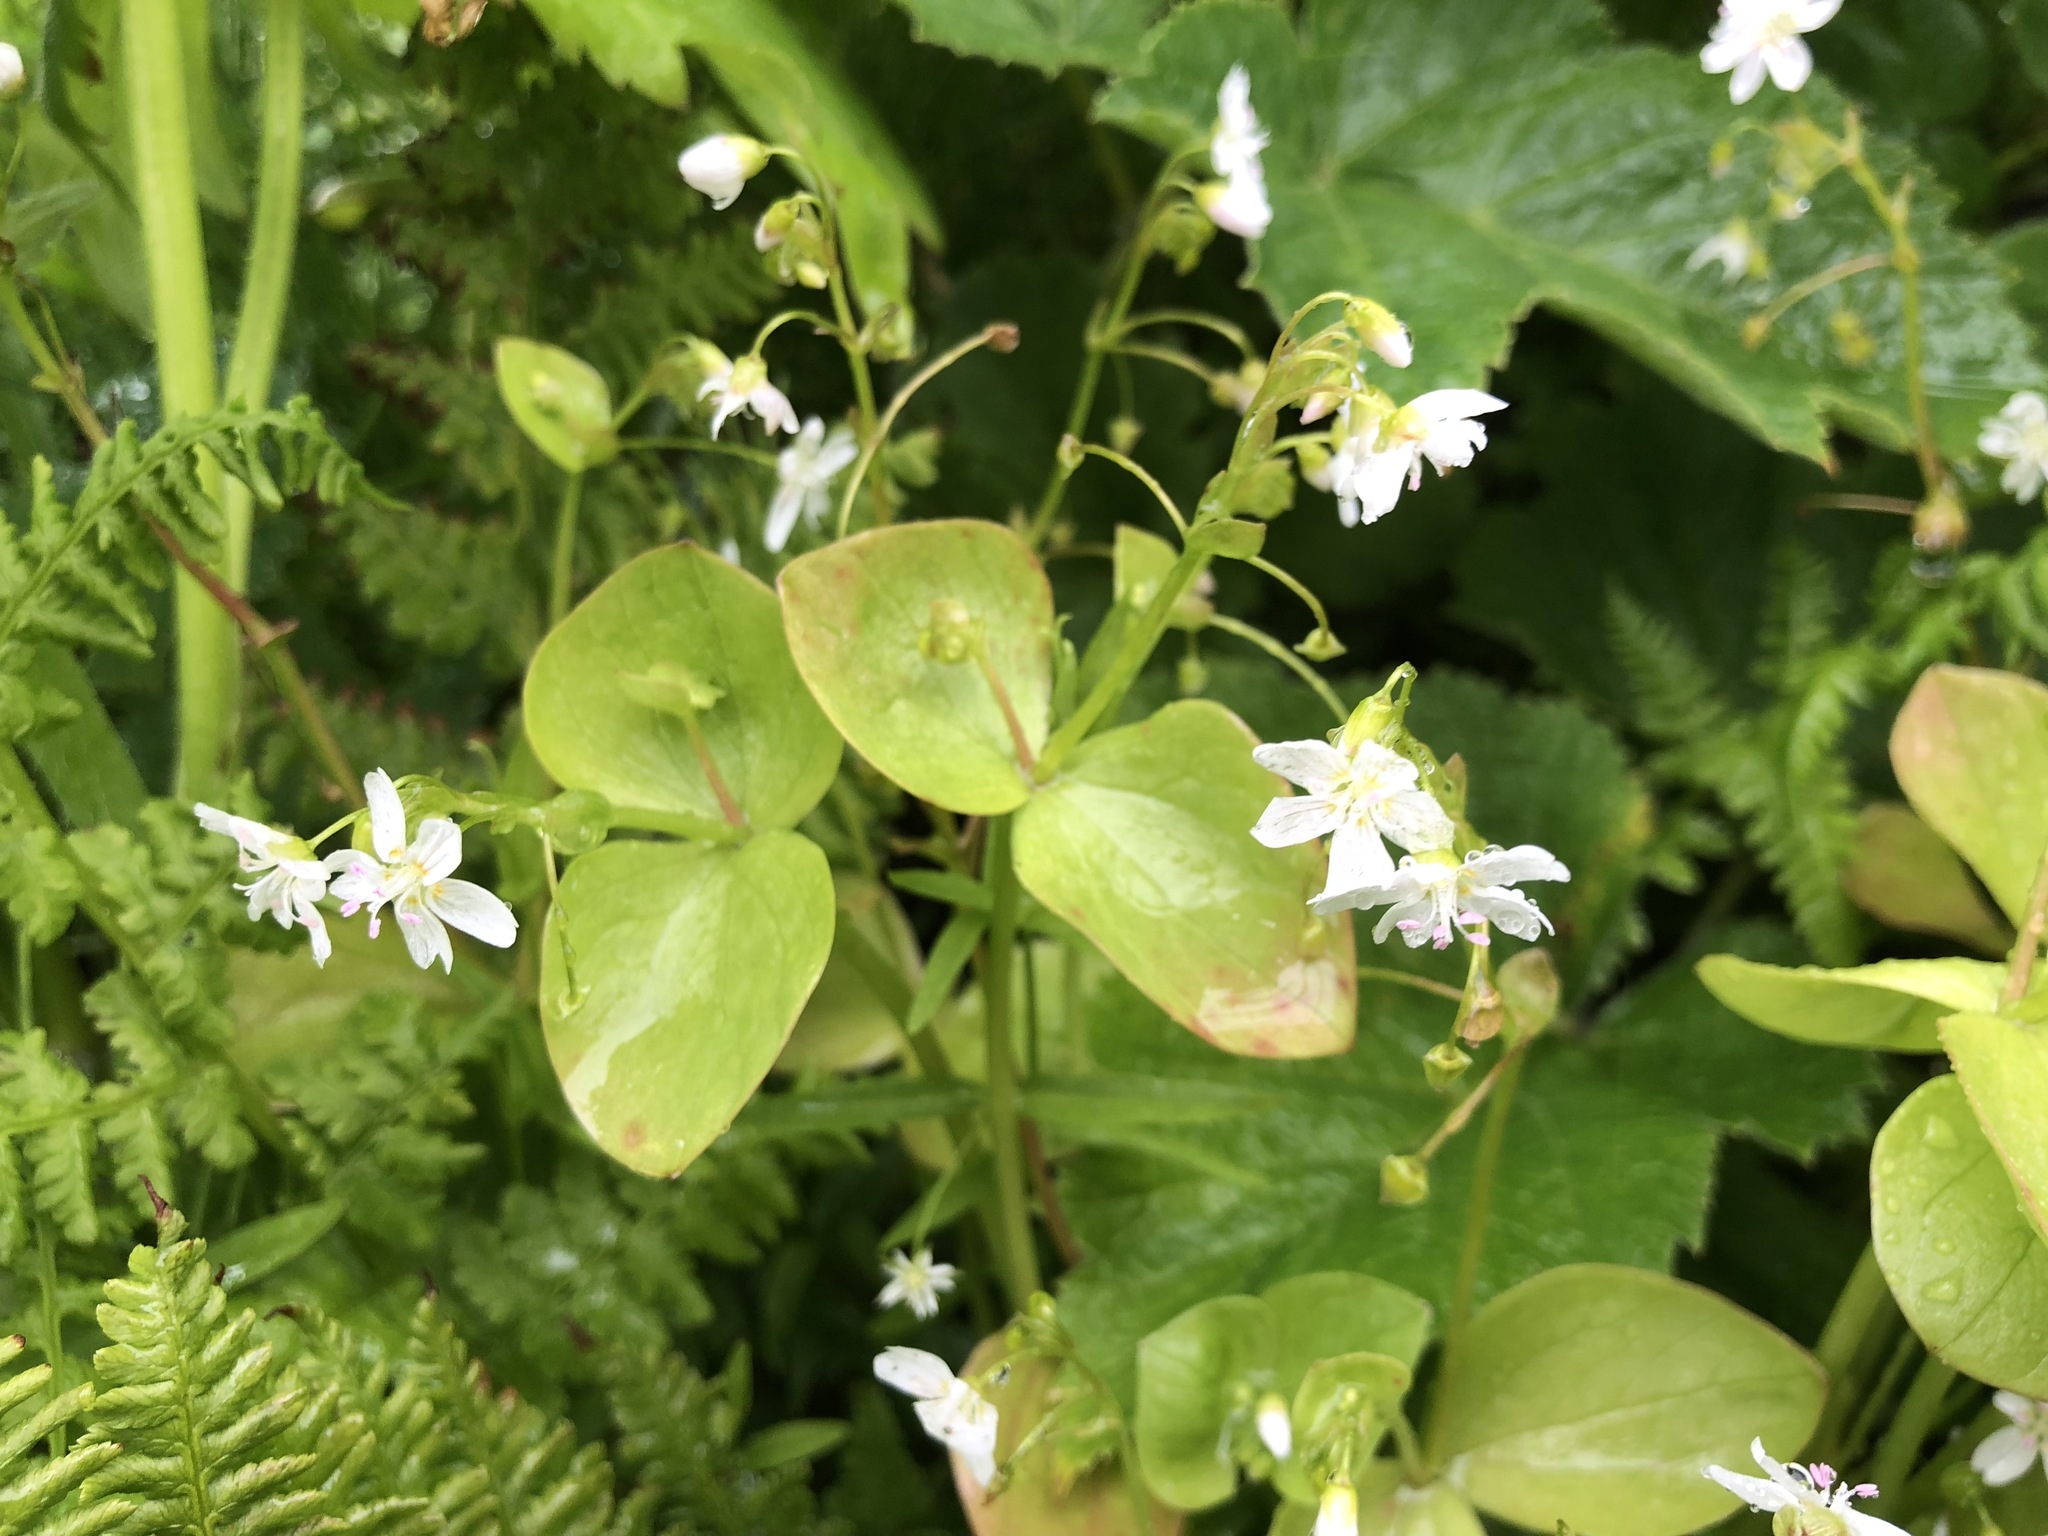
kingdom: Plantae
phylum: Tracheophyta
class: Magnoliopsida
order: Caryophyllales
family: Montiaceae
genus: Claytonia
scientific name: Claytonia sibirica
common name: Pink purslane
